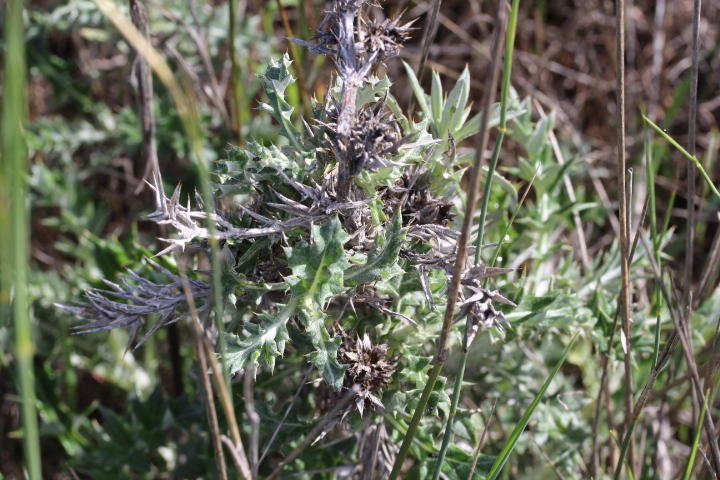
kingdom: Plantae
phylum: Tracheophyta
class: Magnoliopsida
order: Asterales
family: Asteraceae
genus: Berkheya
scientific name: Berkheya rigida
